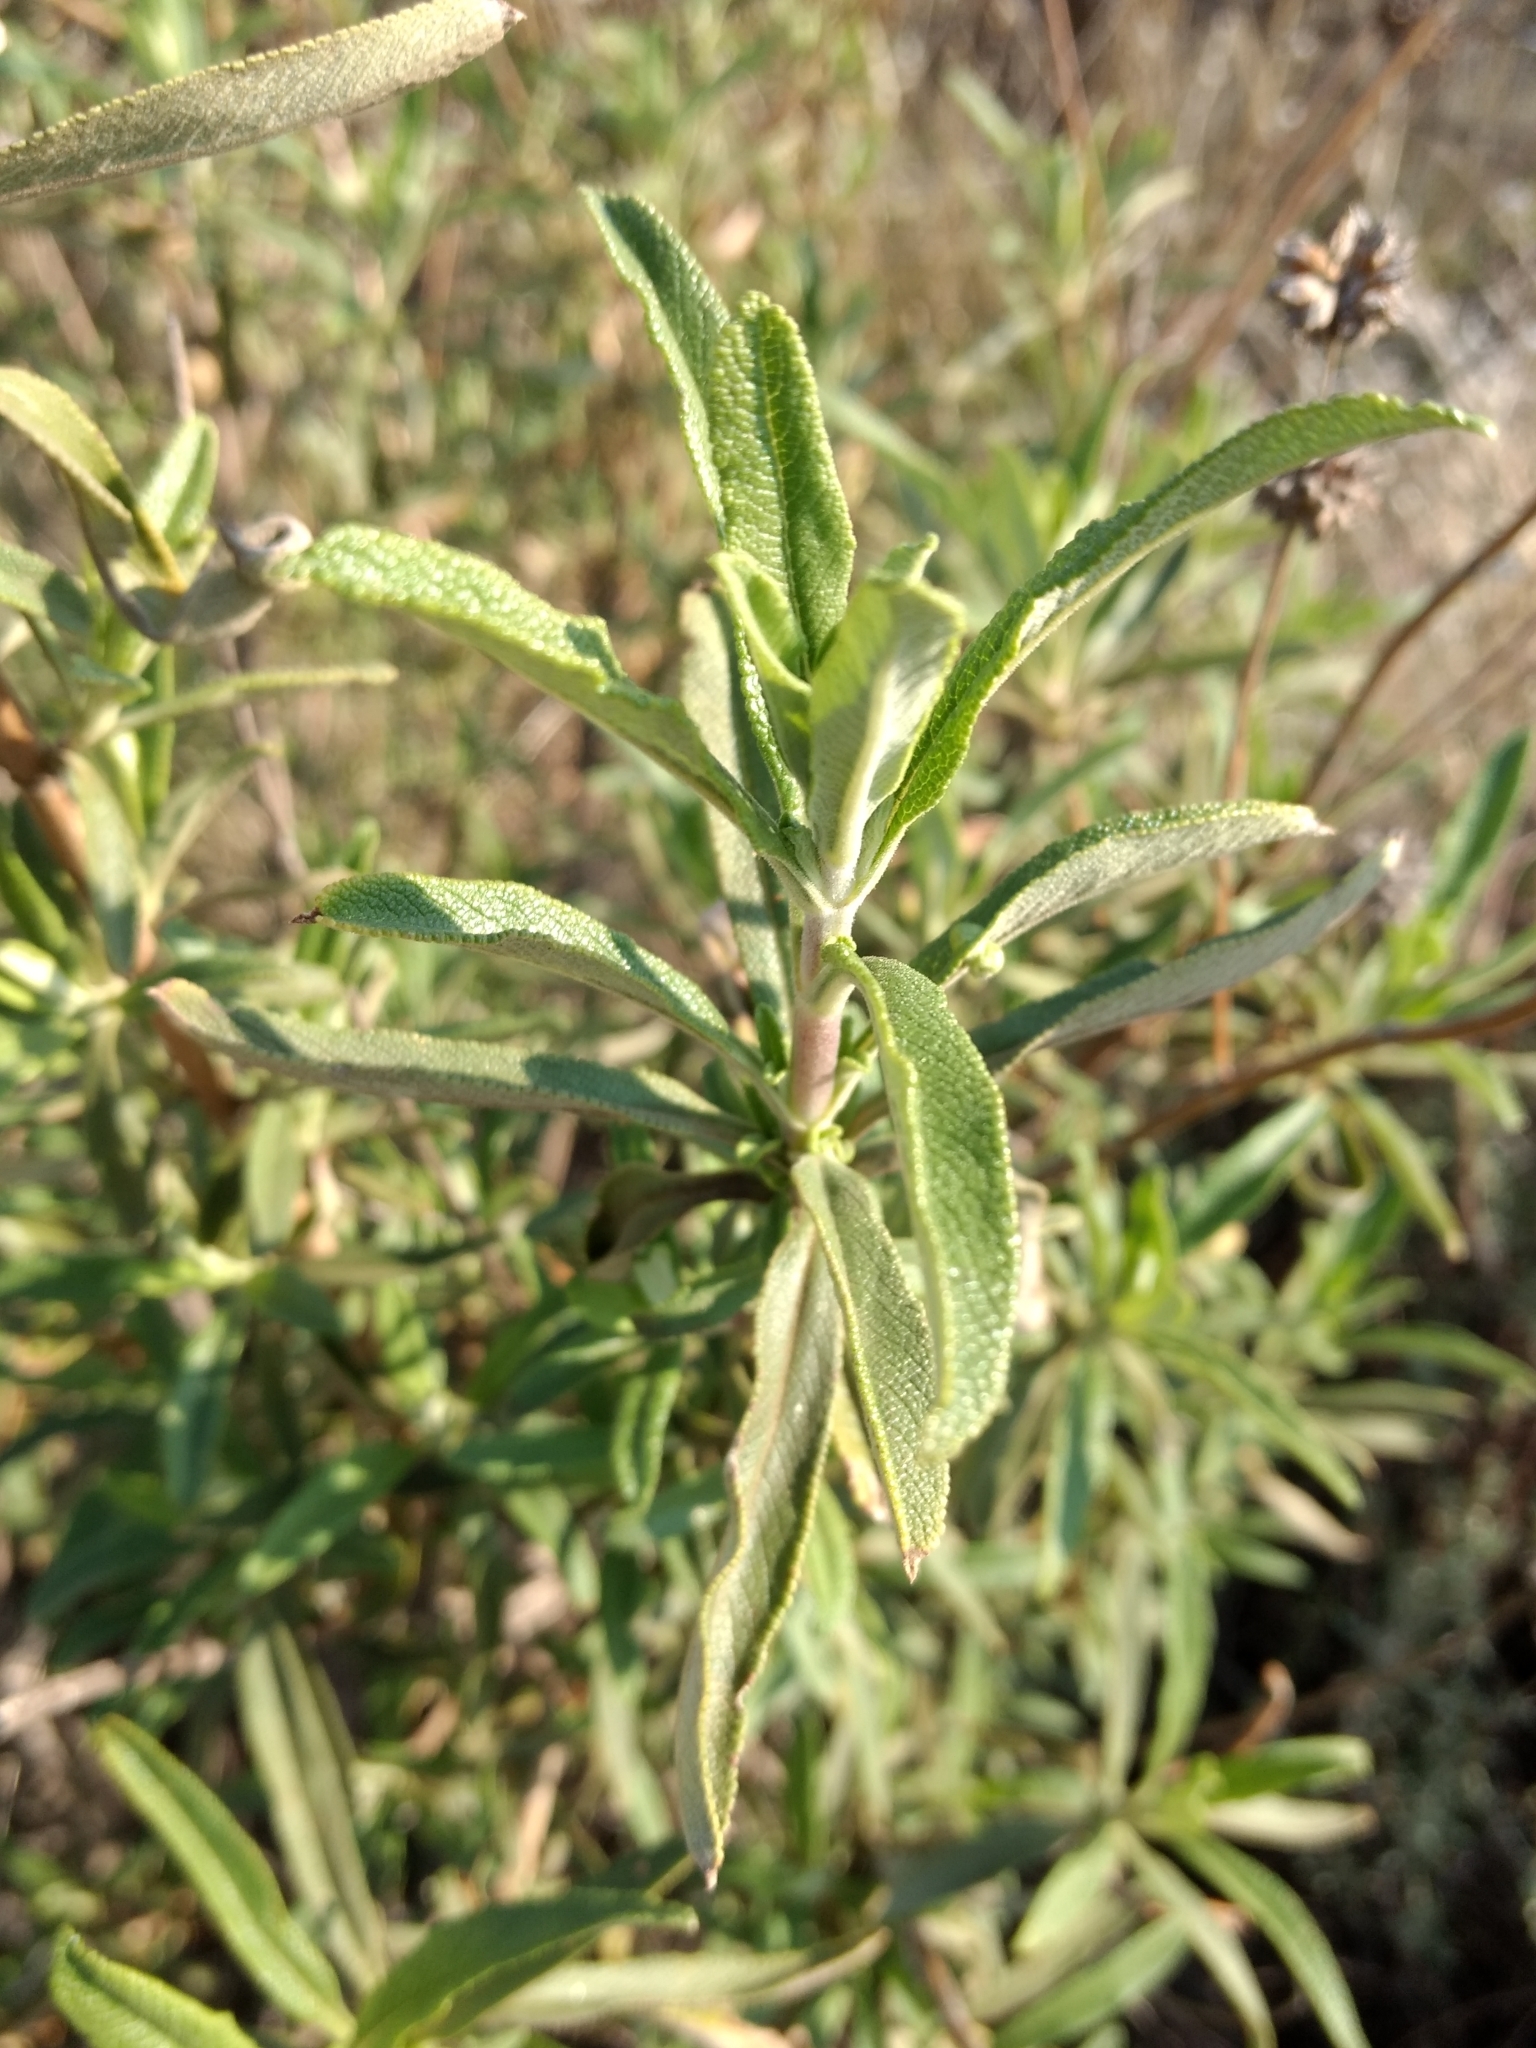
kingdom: Plantae
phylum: Tracheophyta
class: Magnoliopsida
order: Lamiales
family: Lamiaceae
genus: Salvia
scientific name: Salvia mellifera
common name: Black sage
